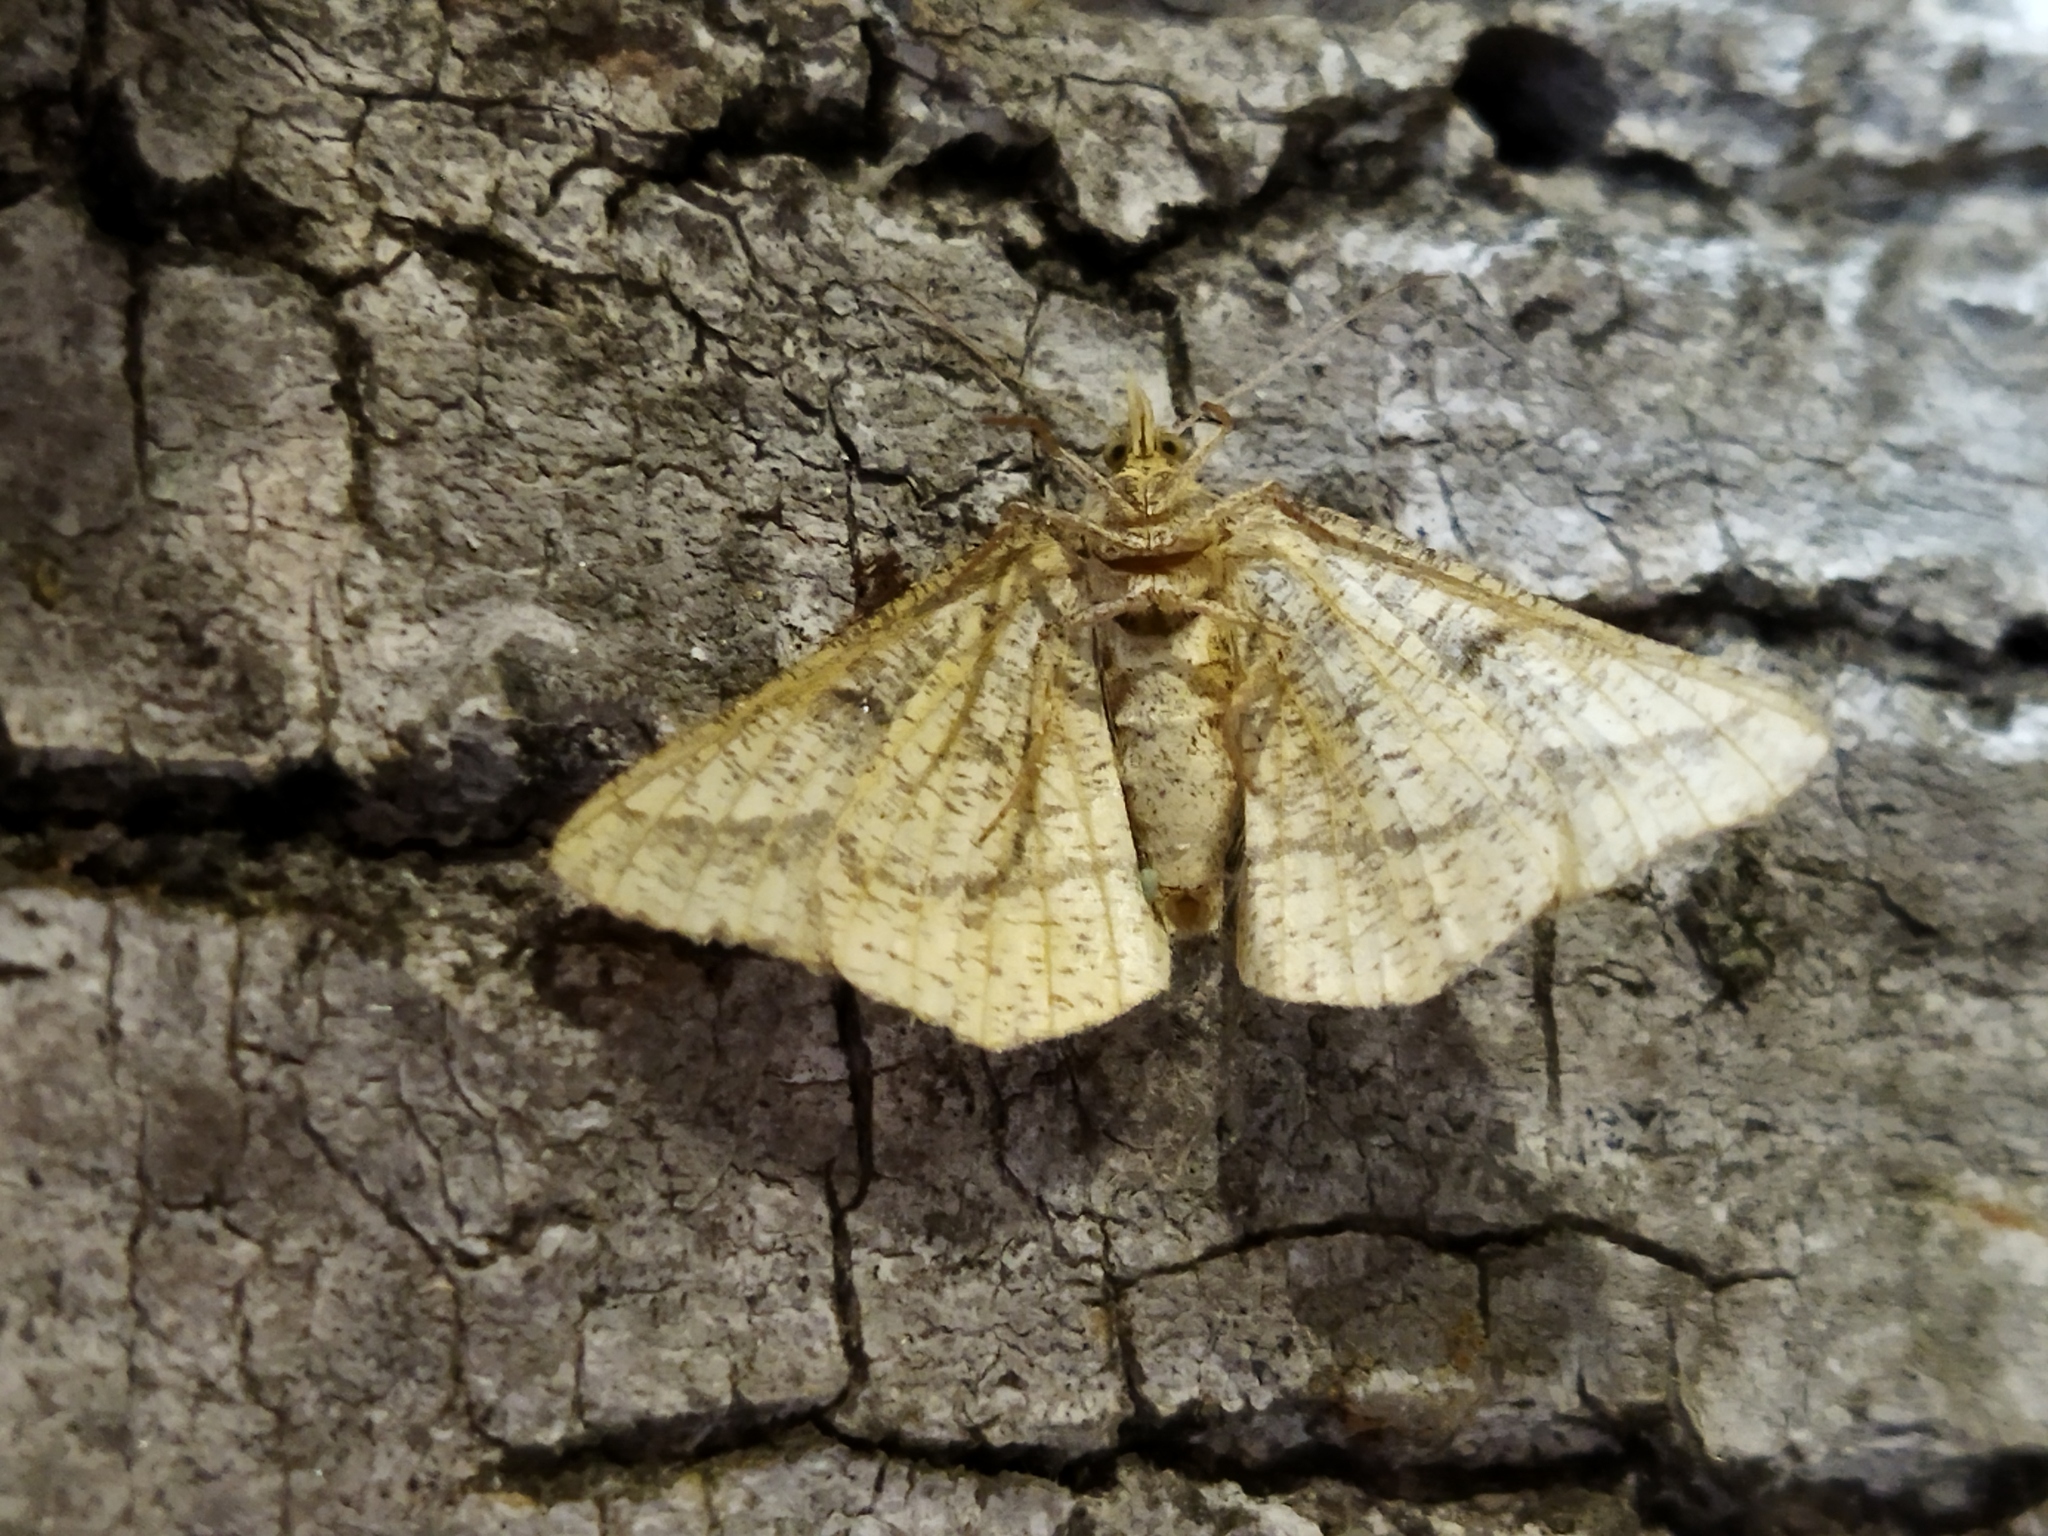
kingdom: Animalia
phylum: Arthropoda
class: Insecta
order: Lepidoptera
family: Geometridae
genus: Tephrina
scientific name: Tephrina arenacearia
